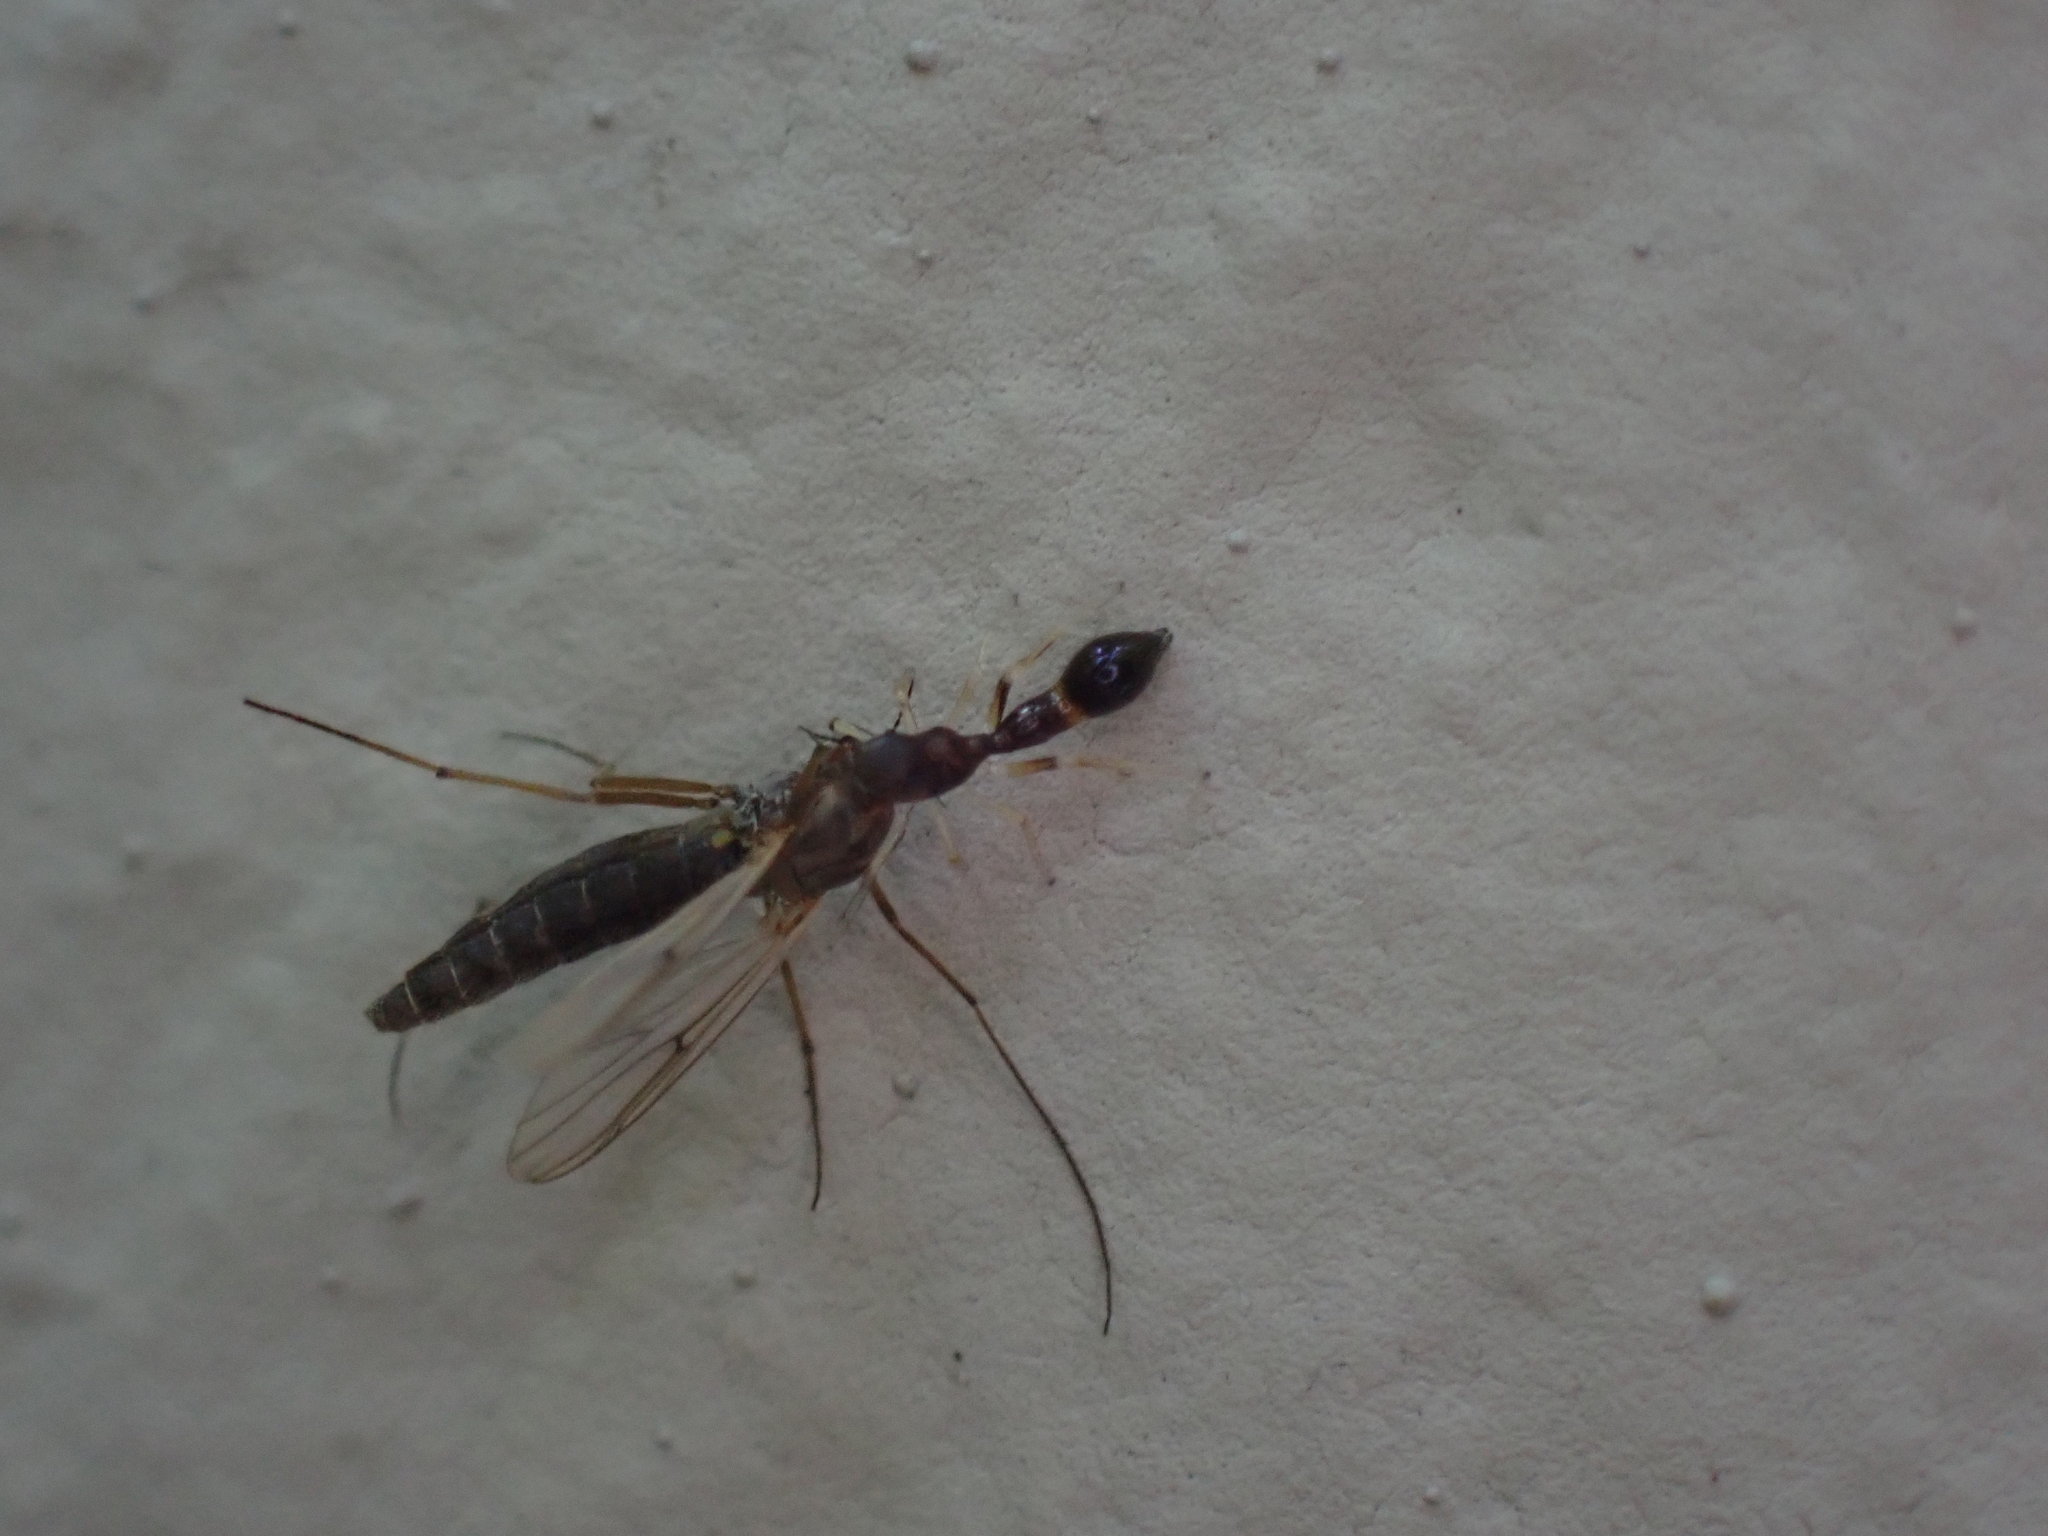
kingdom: Animalia
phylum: Arthropoda
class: Arachnida
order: Araneae
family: Salticidae
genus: Synemosyna
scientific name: Synemosyna formica
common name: Slender ant-mimic jumping spider
